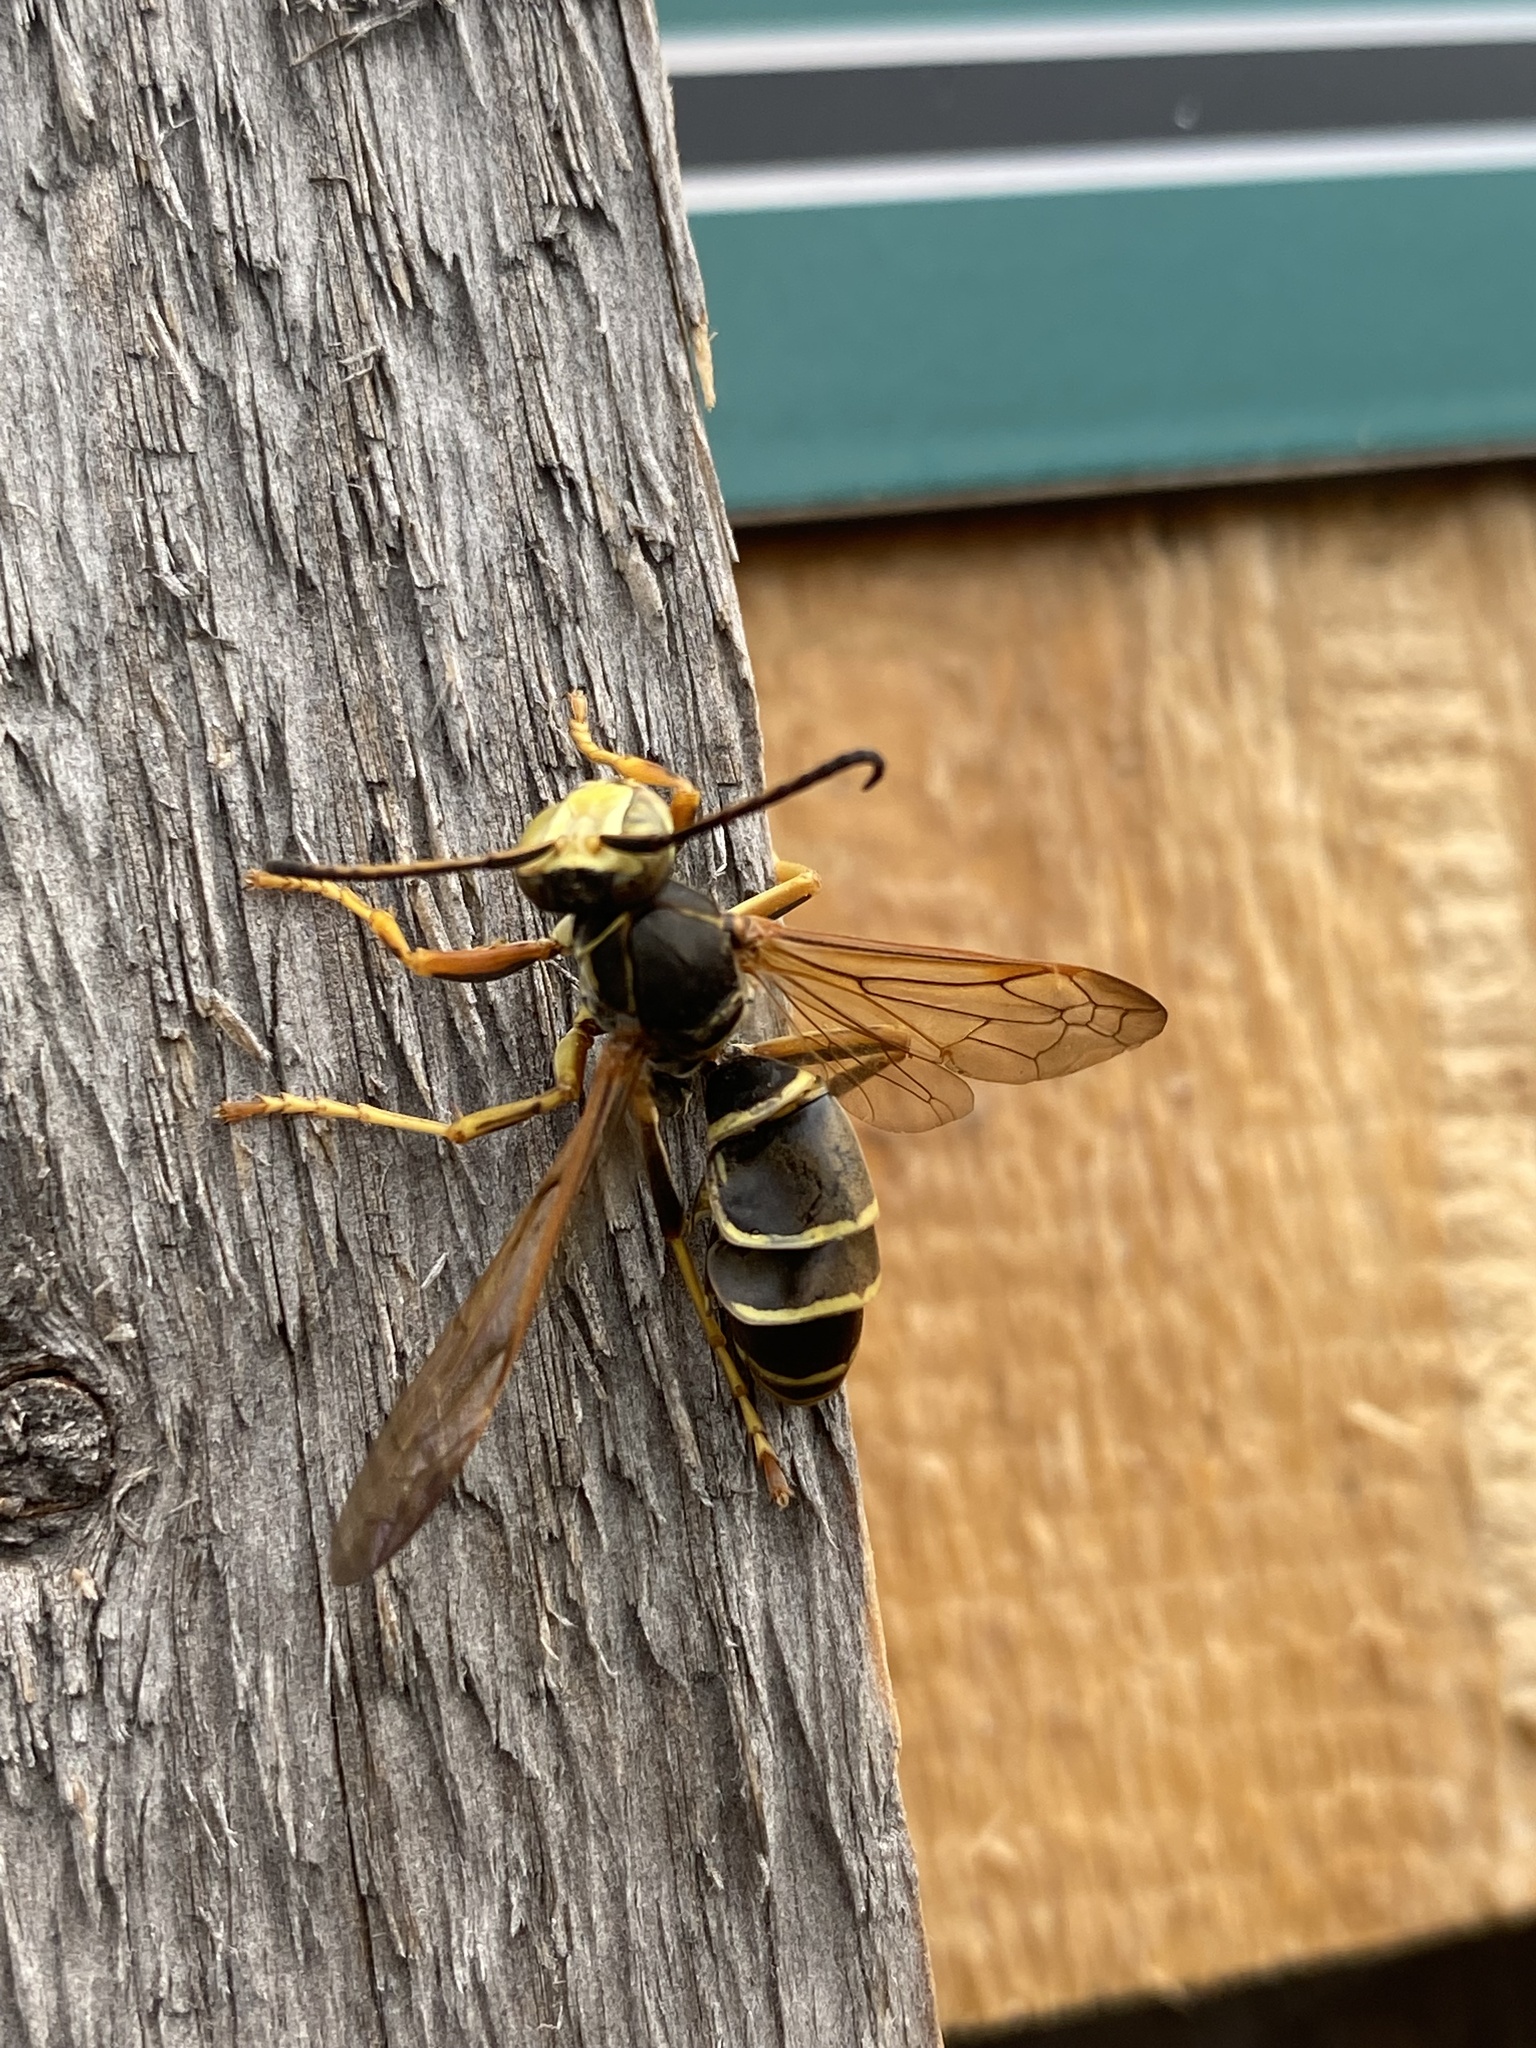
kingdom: Animalia
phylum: Arthropoda
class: Insecta
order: Hymenoptera
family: Eumenidae
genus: Polistes
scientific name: Polistes fuscatus
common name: Dark paper wasp
